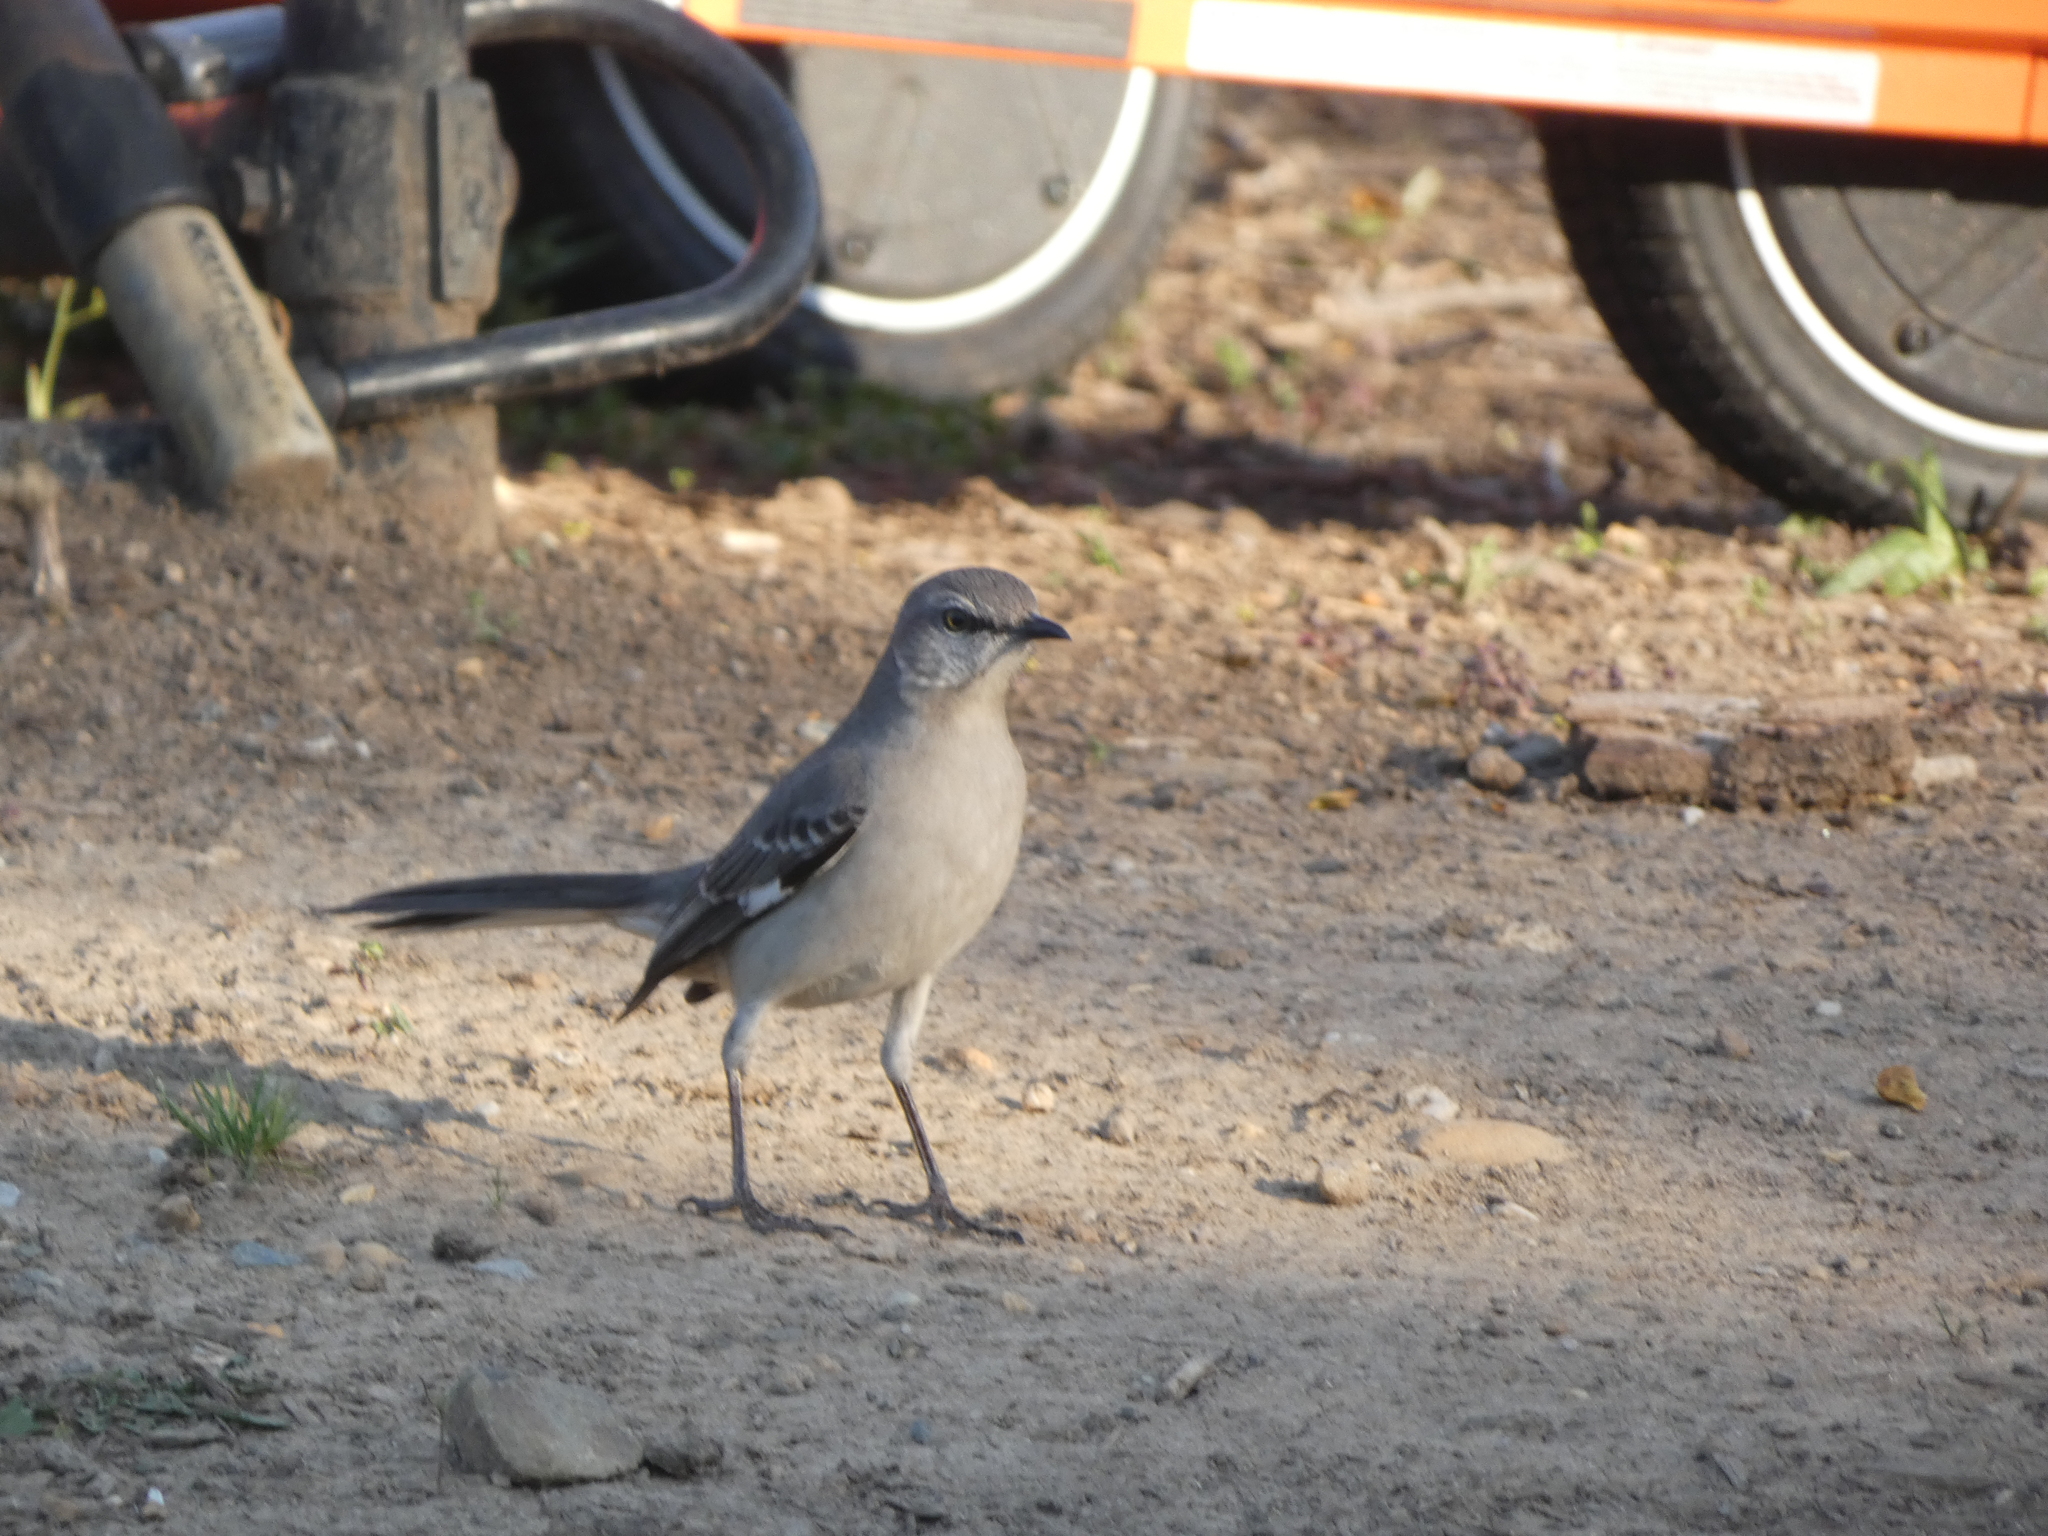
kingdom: Animalia
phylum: Chordata
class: Aves
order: Passeriformes
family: Mimidae
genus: Mimus
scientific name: Mimus polyglottos
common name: Northern mockingbird
